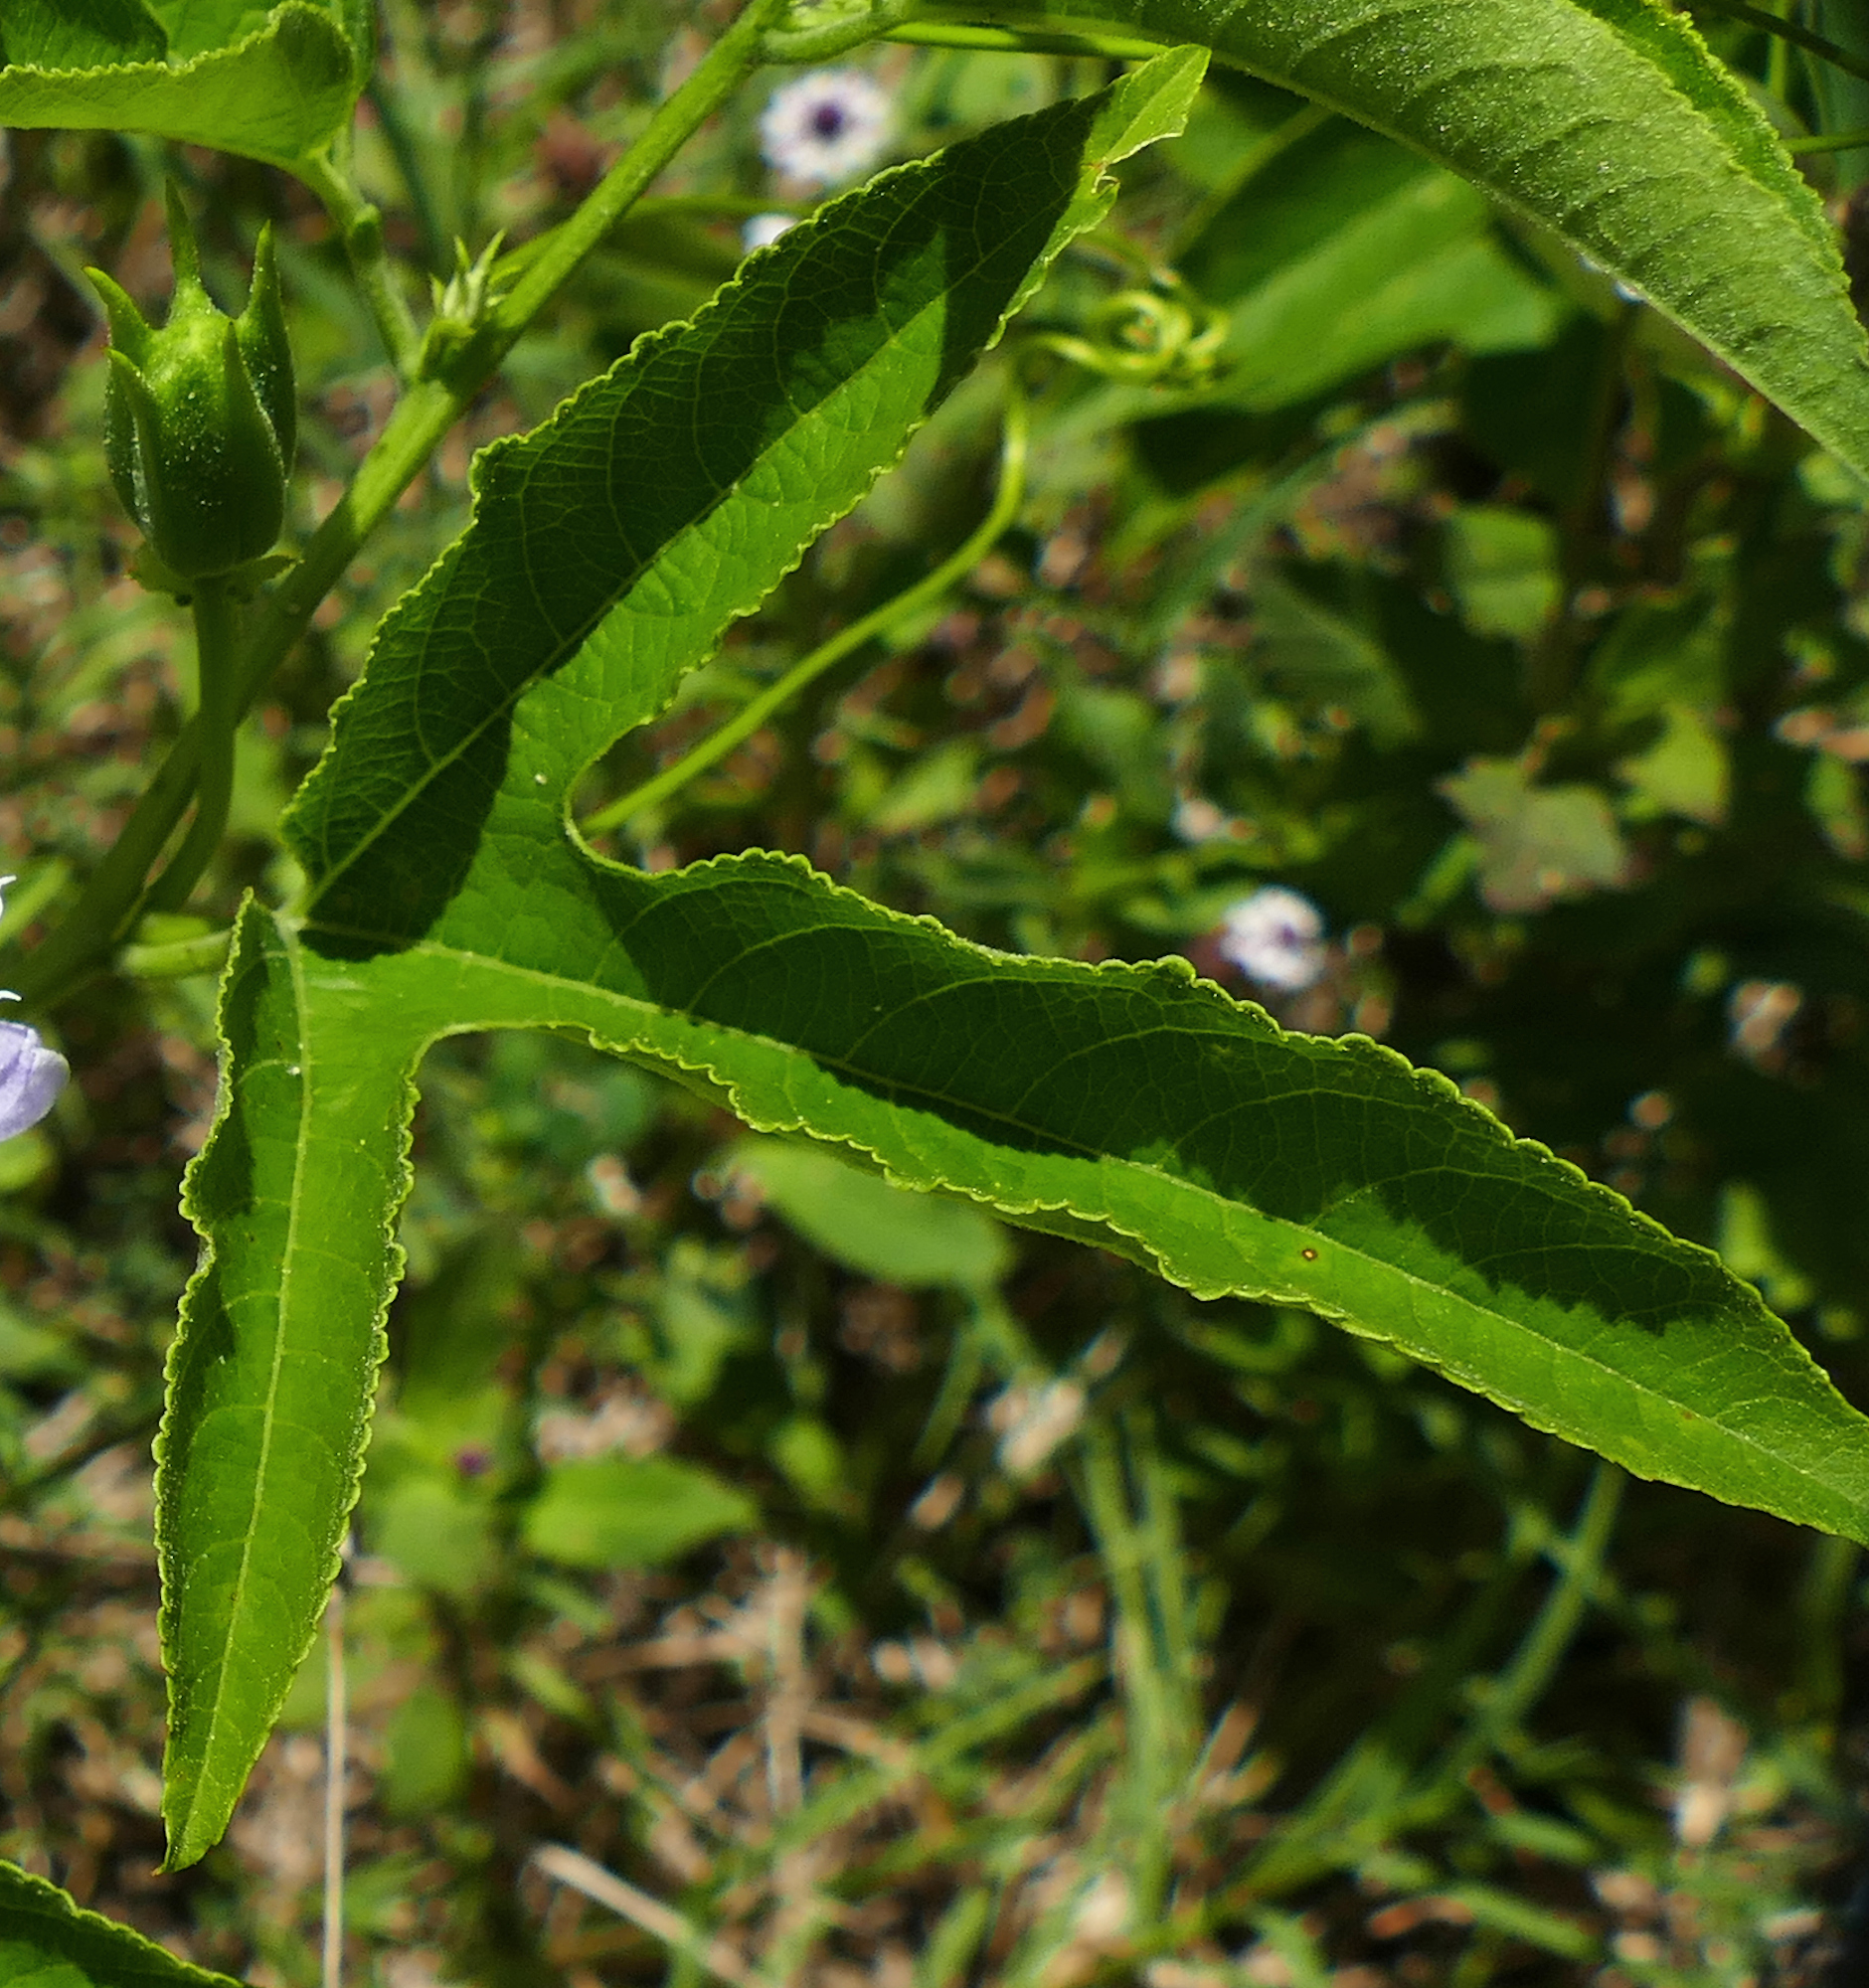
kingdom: Plantae
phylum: Tracheophyta
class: Magnoliopsida
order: Malpighiales
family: Passifloraceae
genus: Passiflora
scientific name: Passiflora incarnata
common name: Apricot-vine
